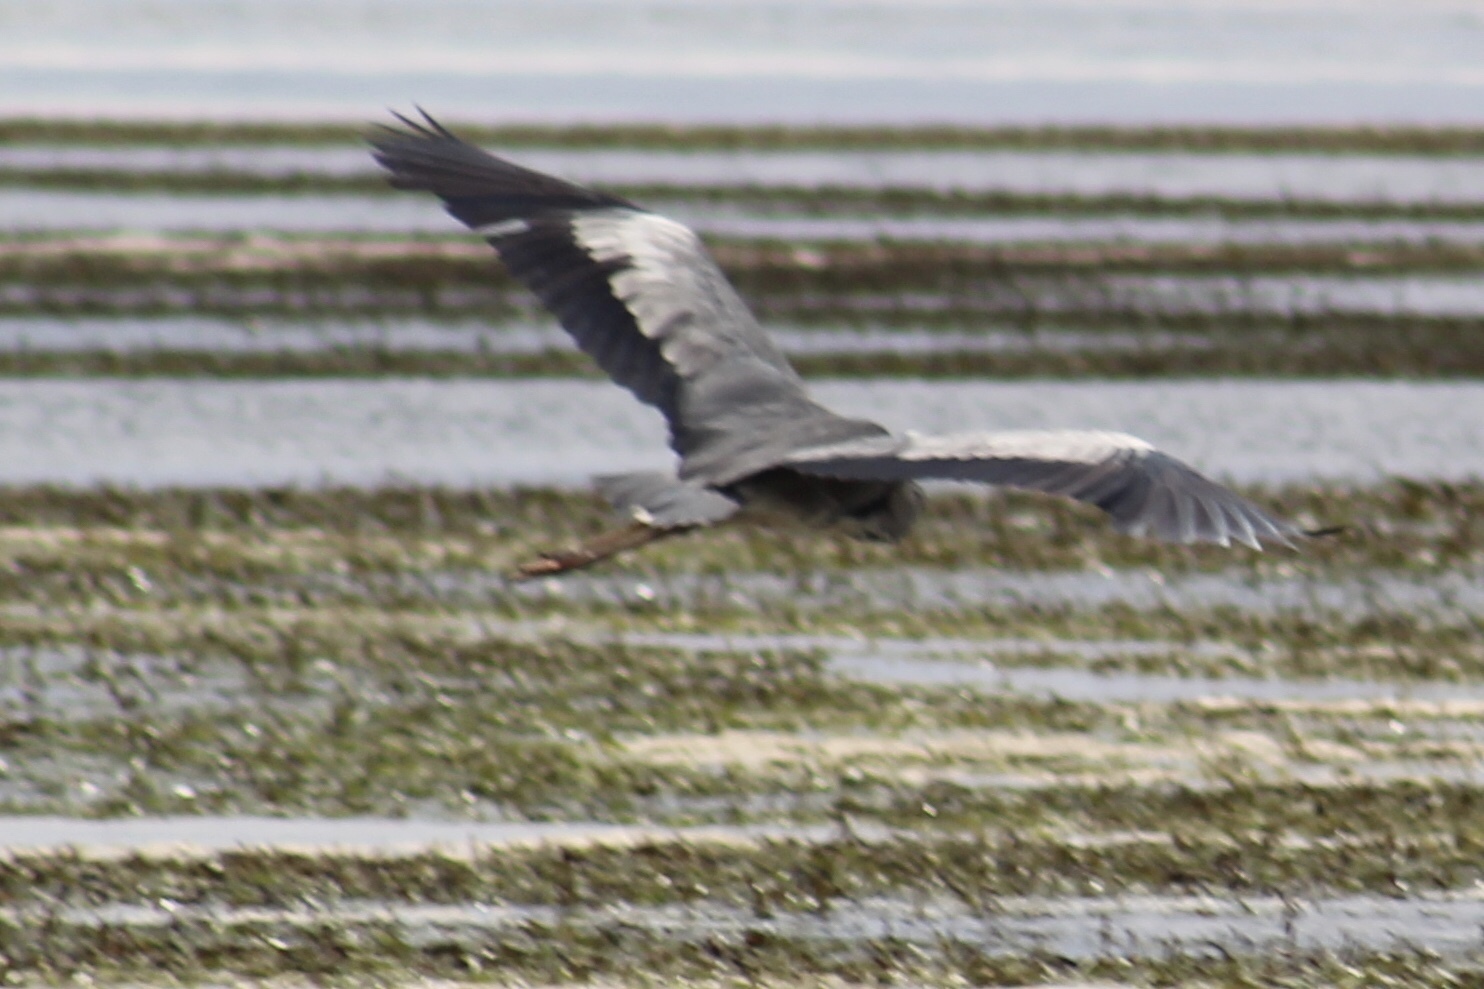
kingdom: Animalia
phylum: Chordata
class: Aves
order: Pelecaniformes
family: Ardeidae
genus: Ardea
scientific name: Ardea cinerea
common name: Grey heron
